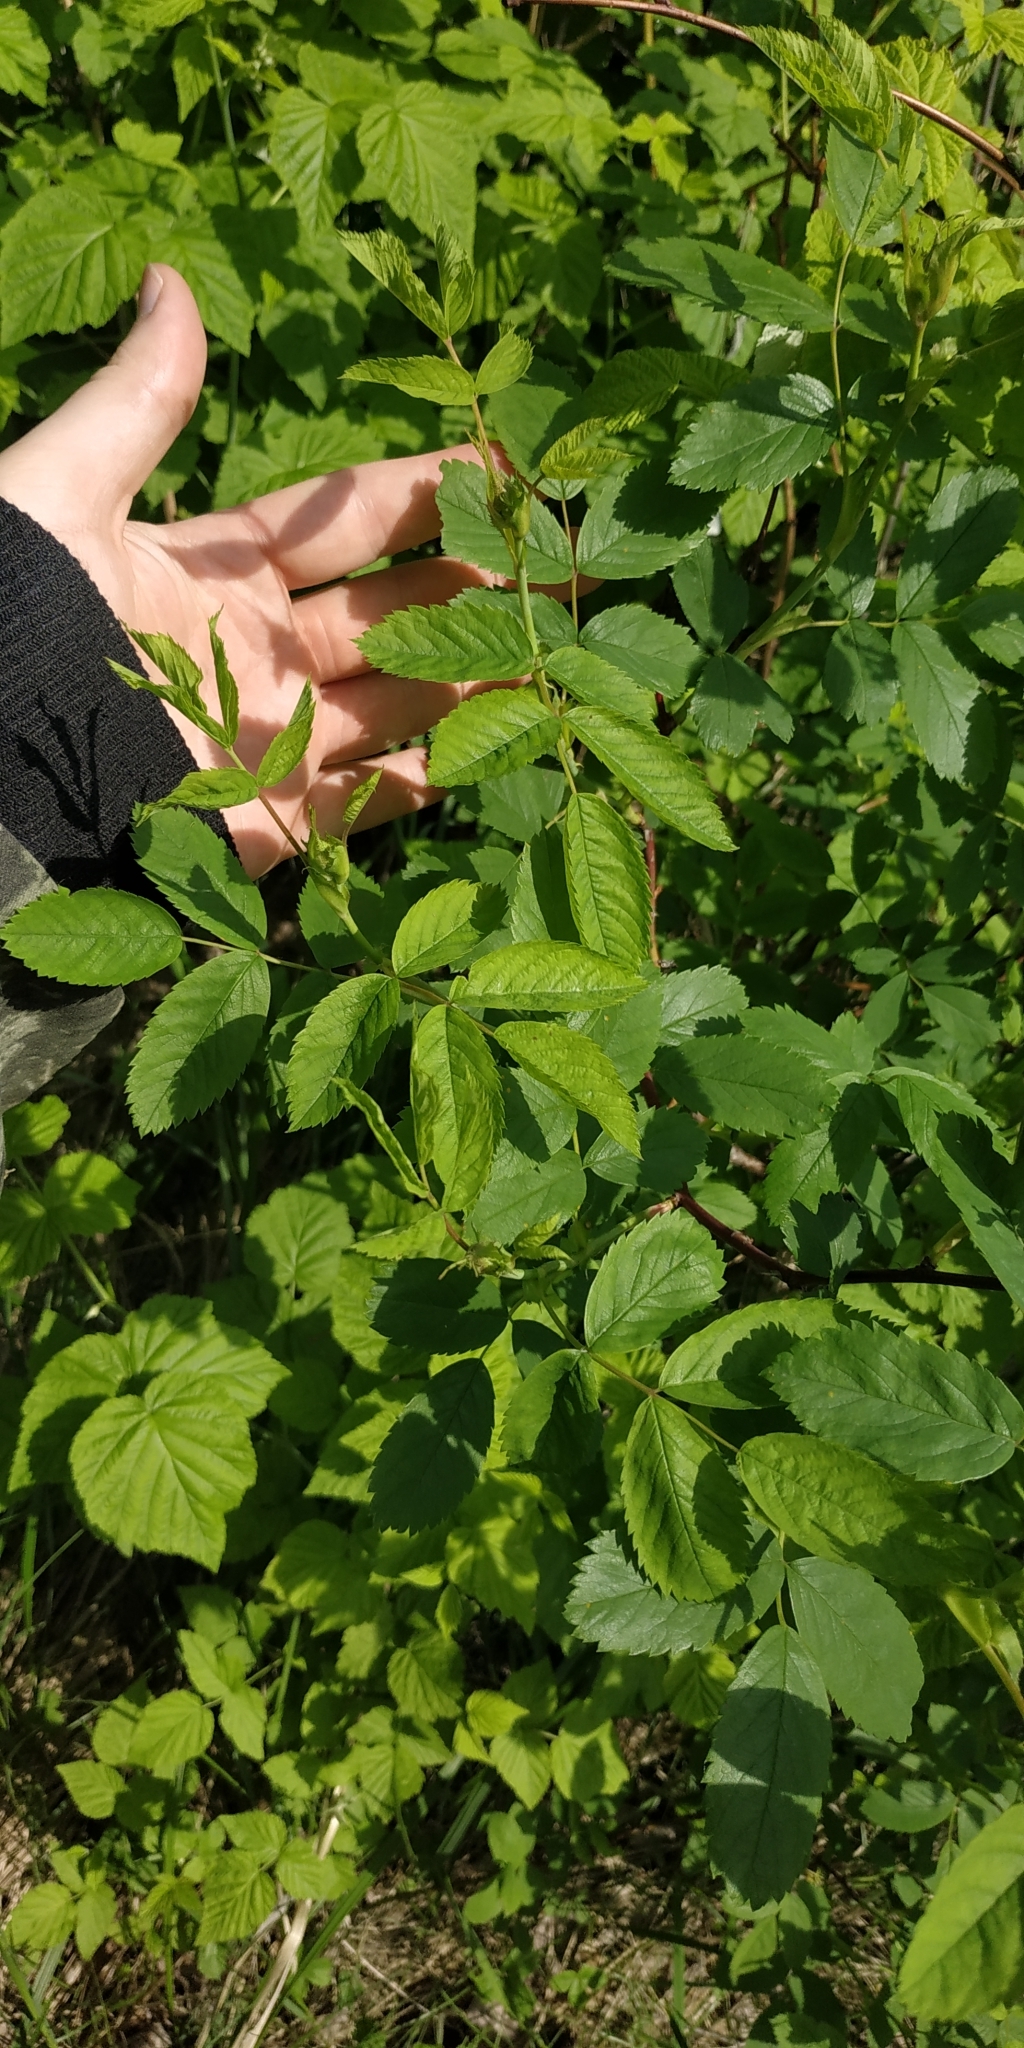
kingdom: Plantae
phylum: Tracheophyta
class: Magnoliopsida
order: Rosales
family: Rosaceae
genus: Rosa
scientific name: Rosa glabrifolia
